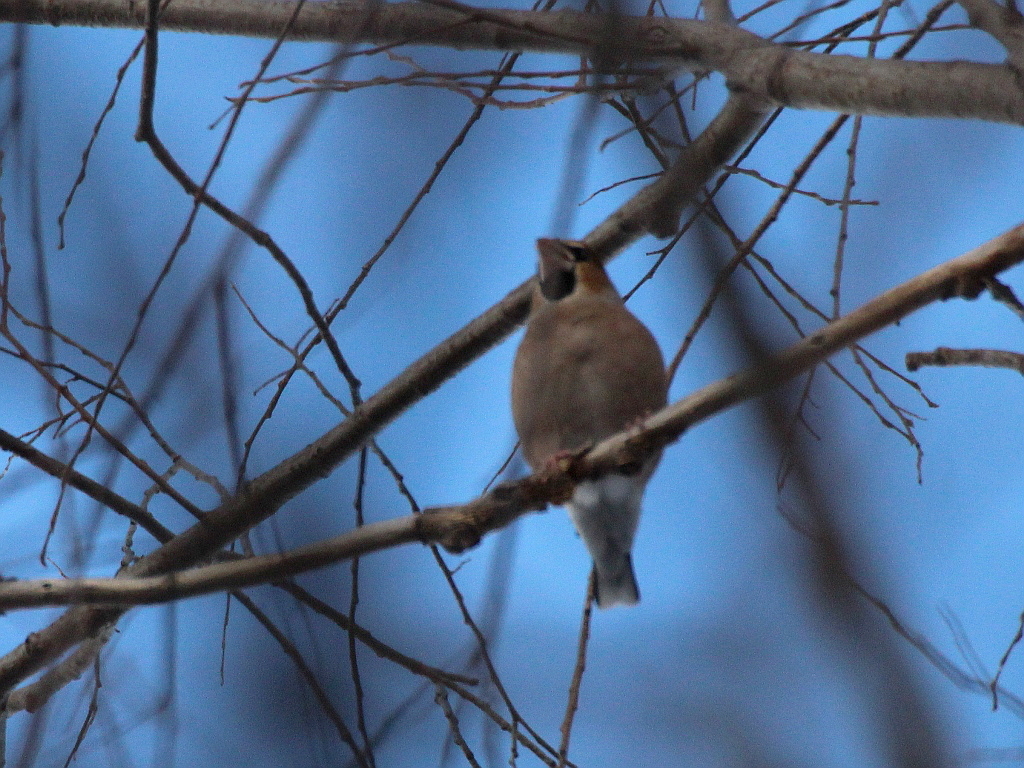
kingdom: Animalia
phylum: Chordata
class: Aves
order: Passeriformes
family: Fringillidae
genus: Coccothraustes
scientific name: Coccothraustes coccothraustes
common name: Hawfinch
